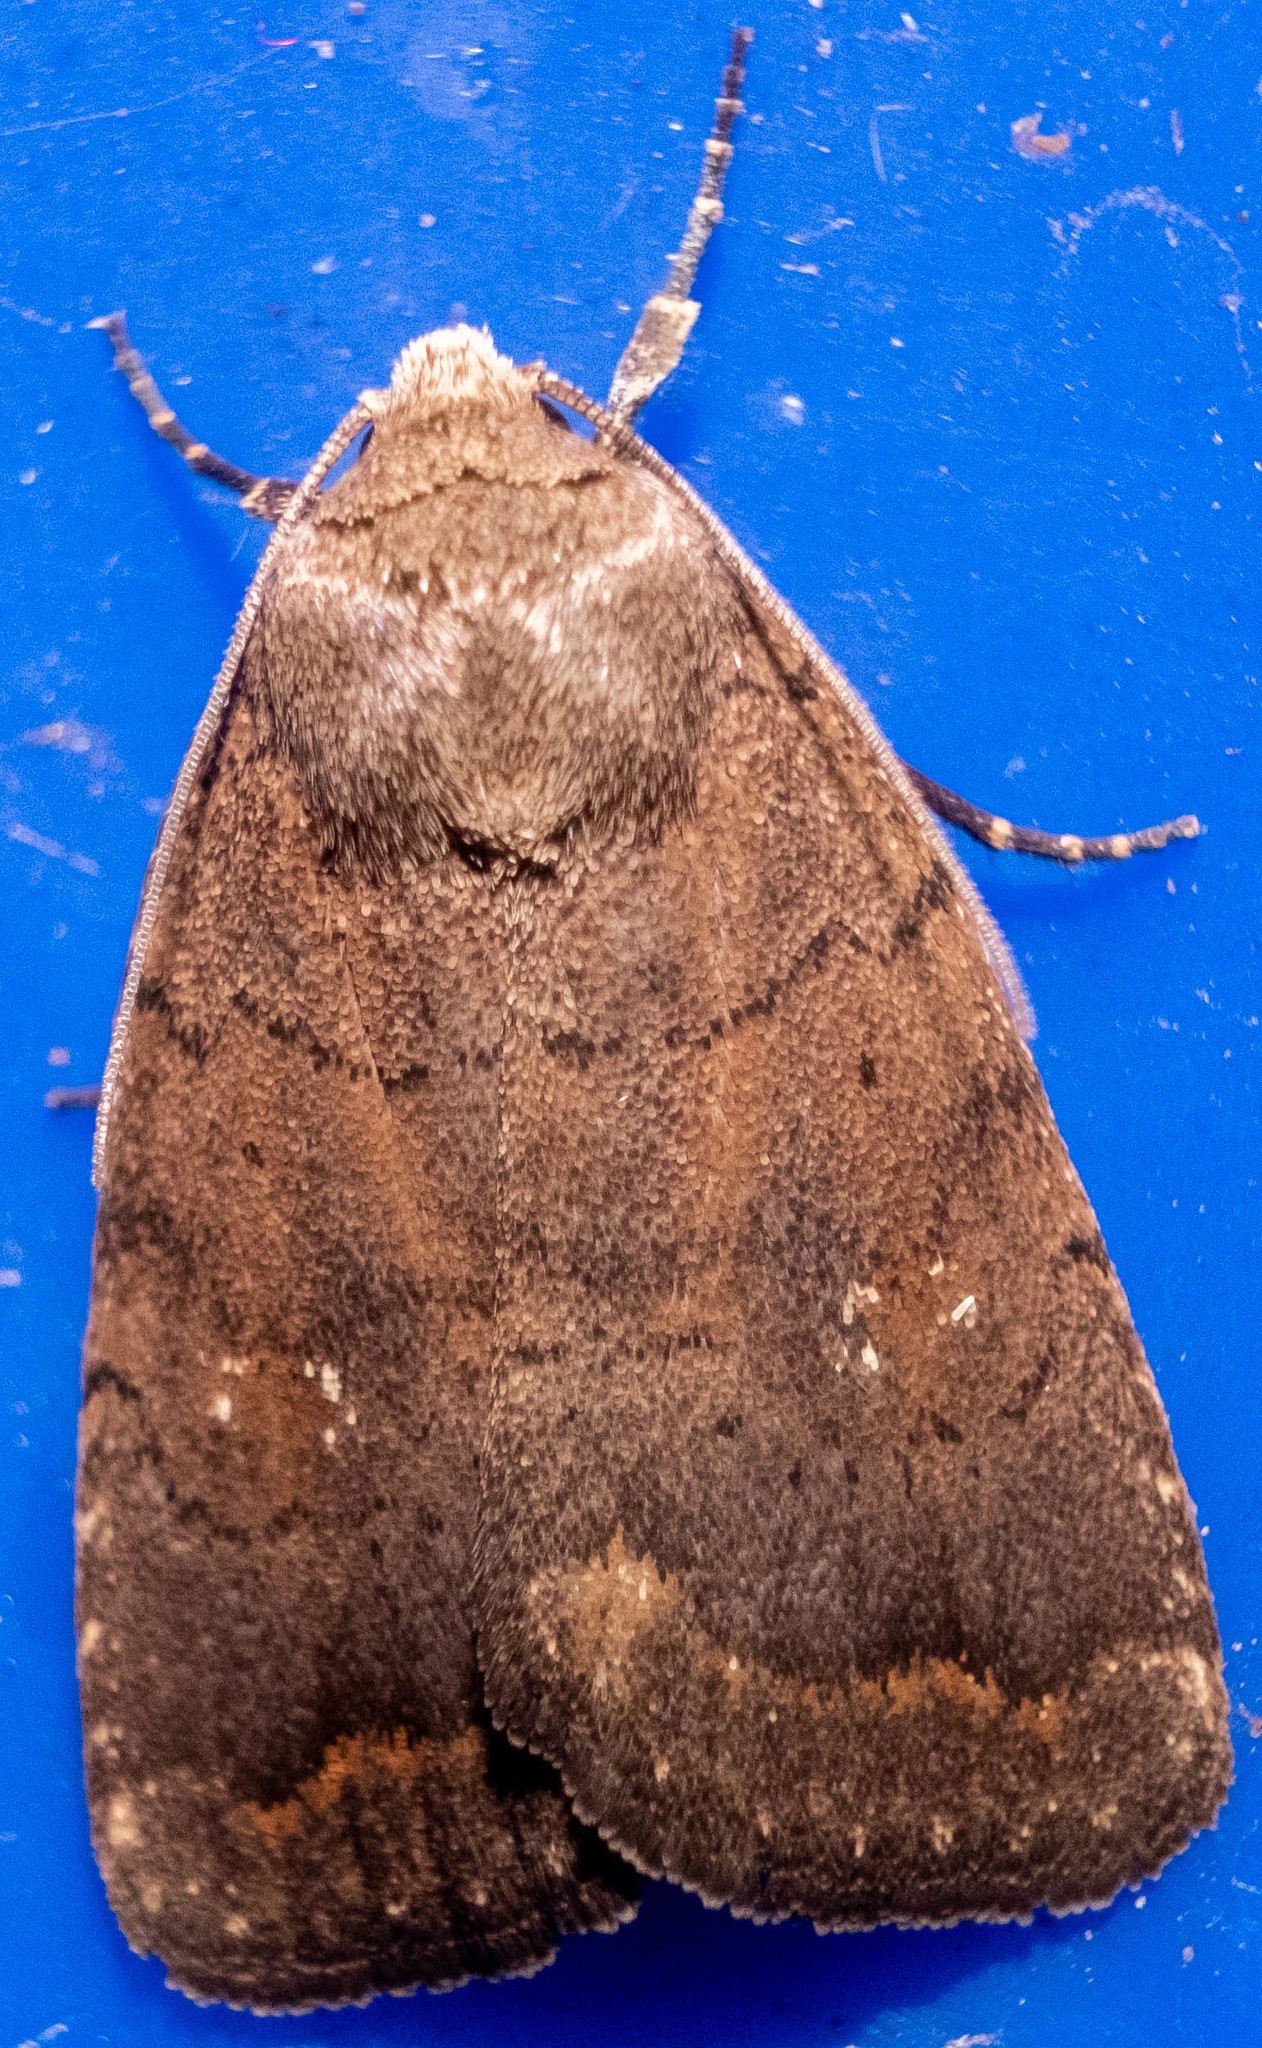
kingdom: Animalia
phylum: Arthropoda
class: Insecta
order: Lepidoptera
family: Noctuidae
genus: Athetis
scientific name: Athetis tarda
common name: Slowpoke moth
